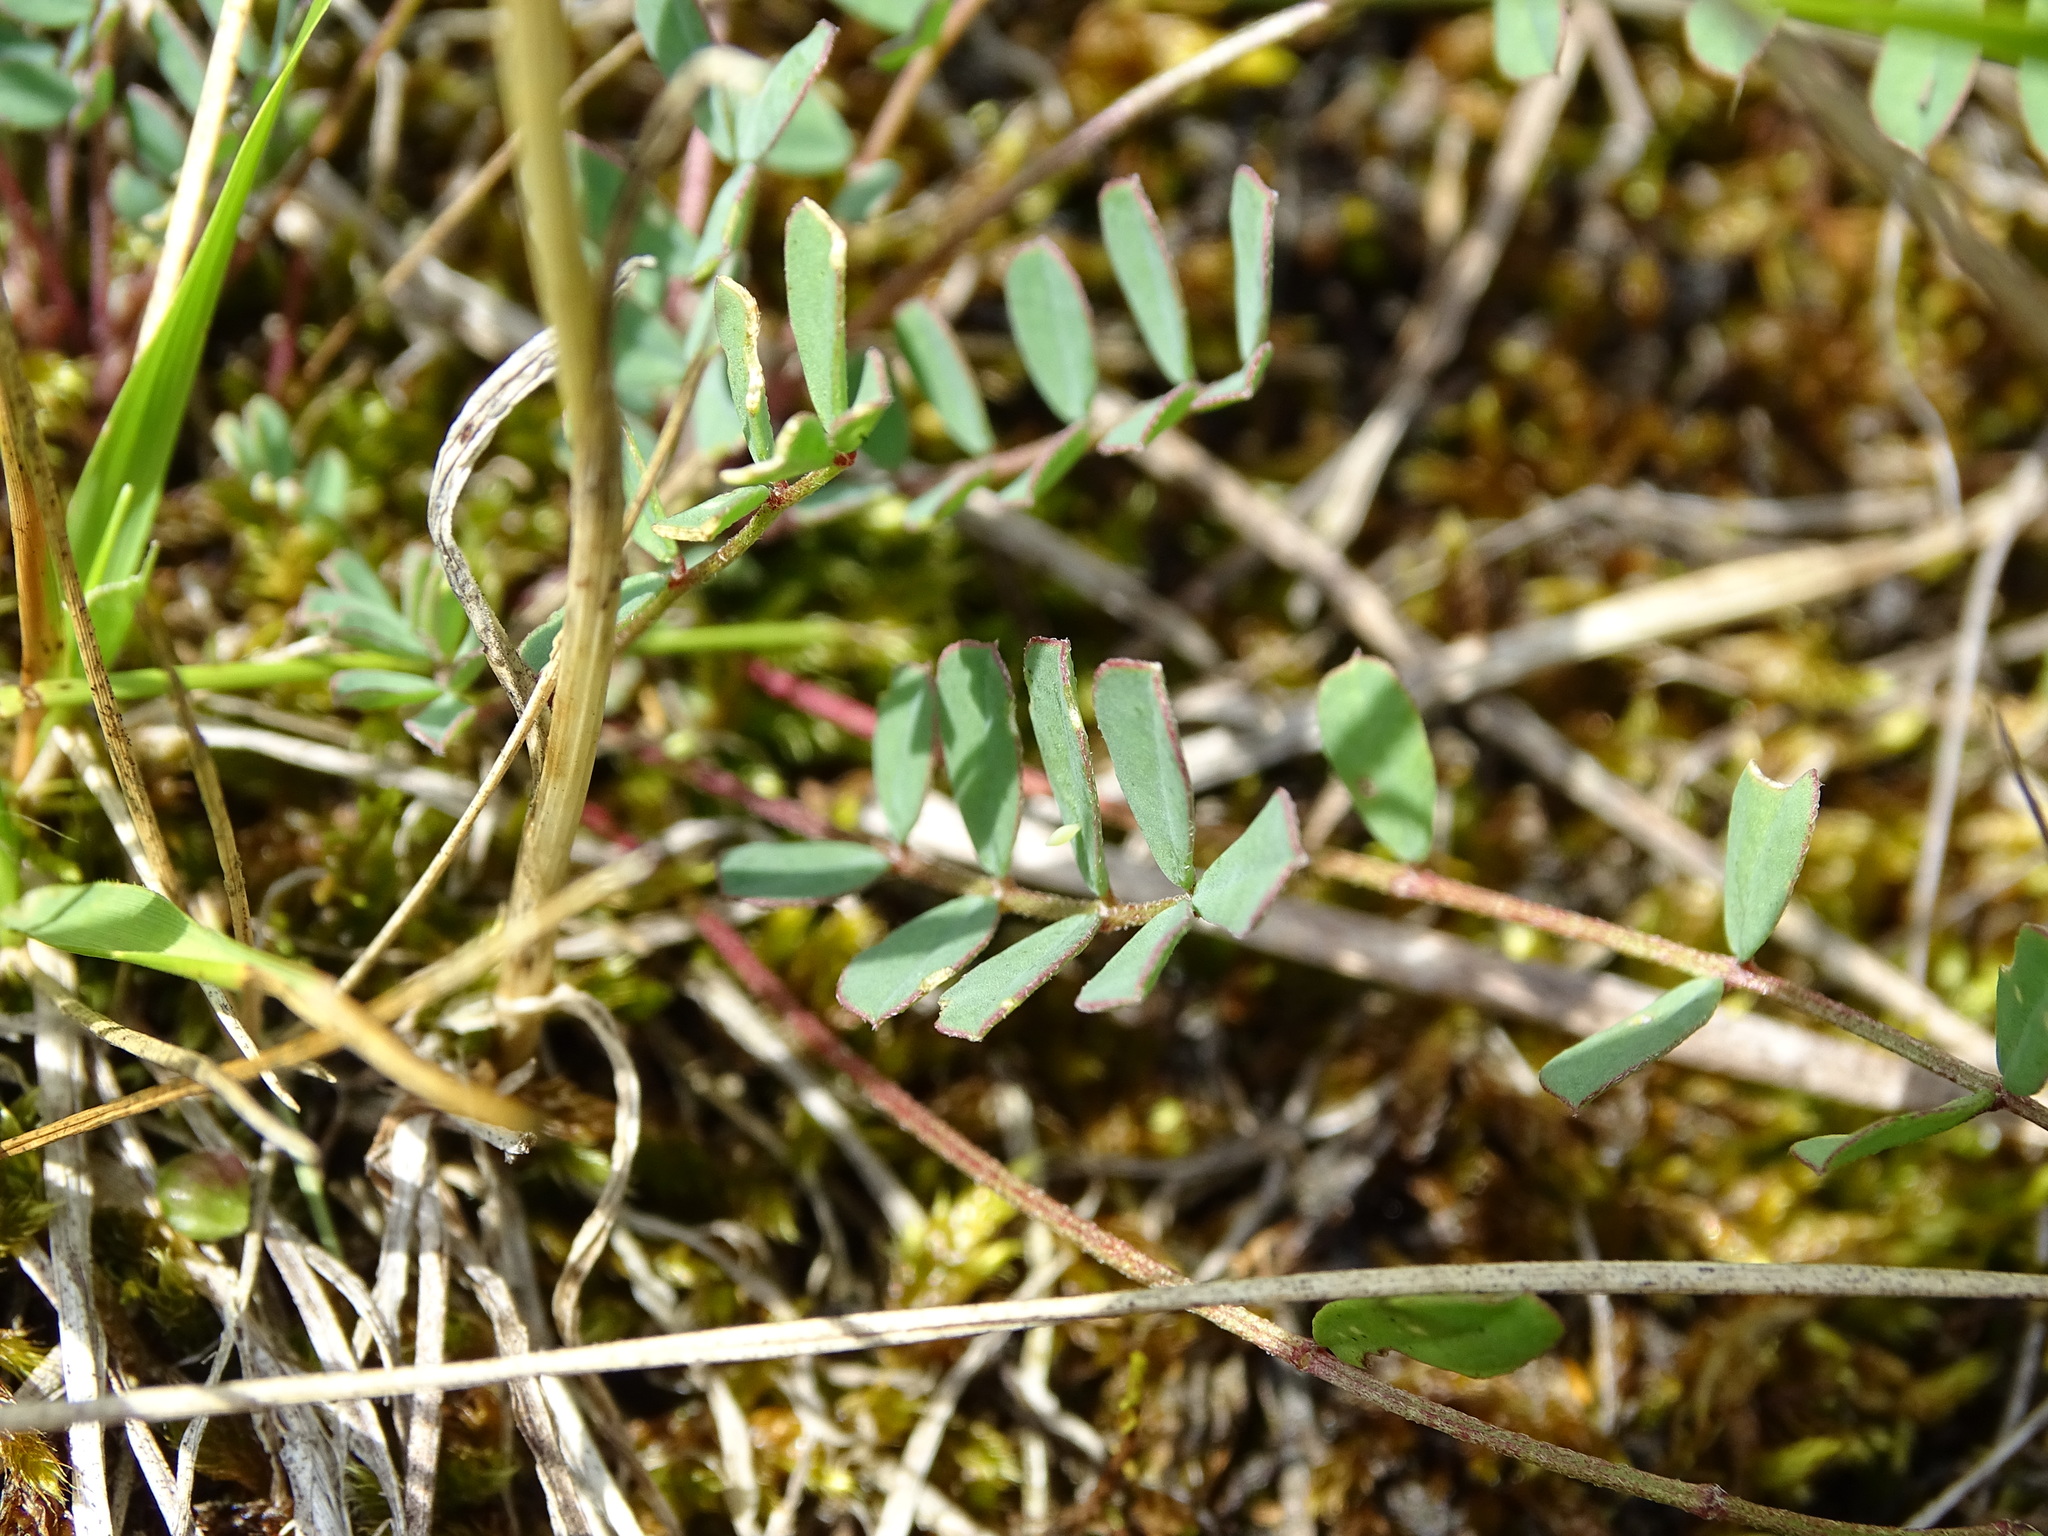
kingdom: Animalia
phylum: Arthropoda
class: Insecta
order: Lepidoptera
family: Pieridae
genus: Colias
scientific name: Colias alfacariensis
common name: Berger's clouded yellow
